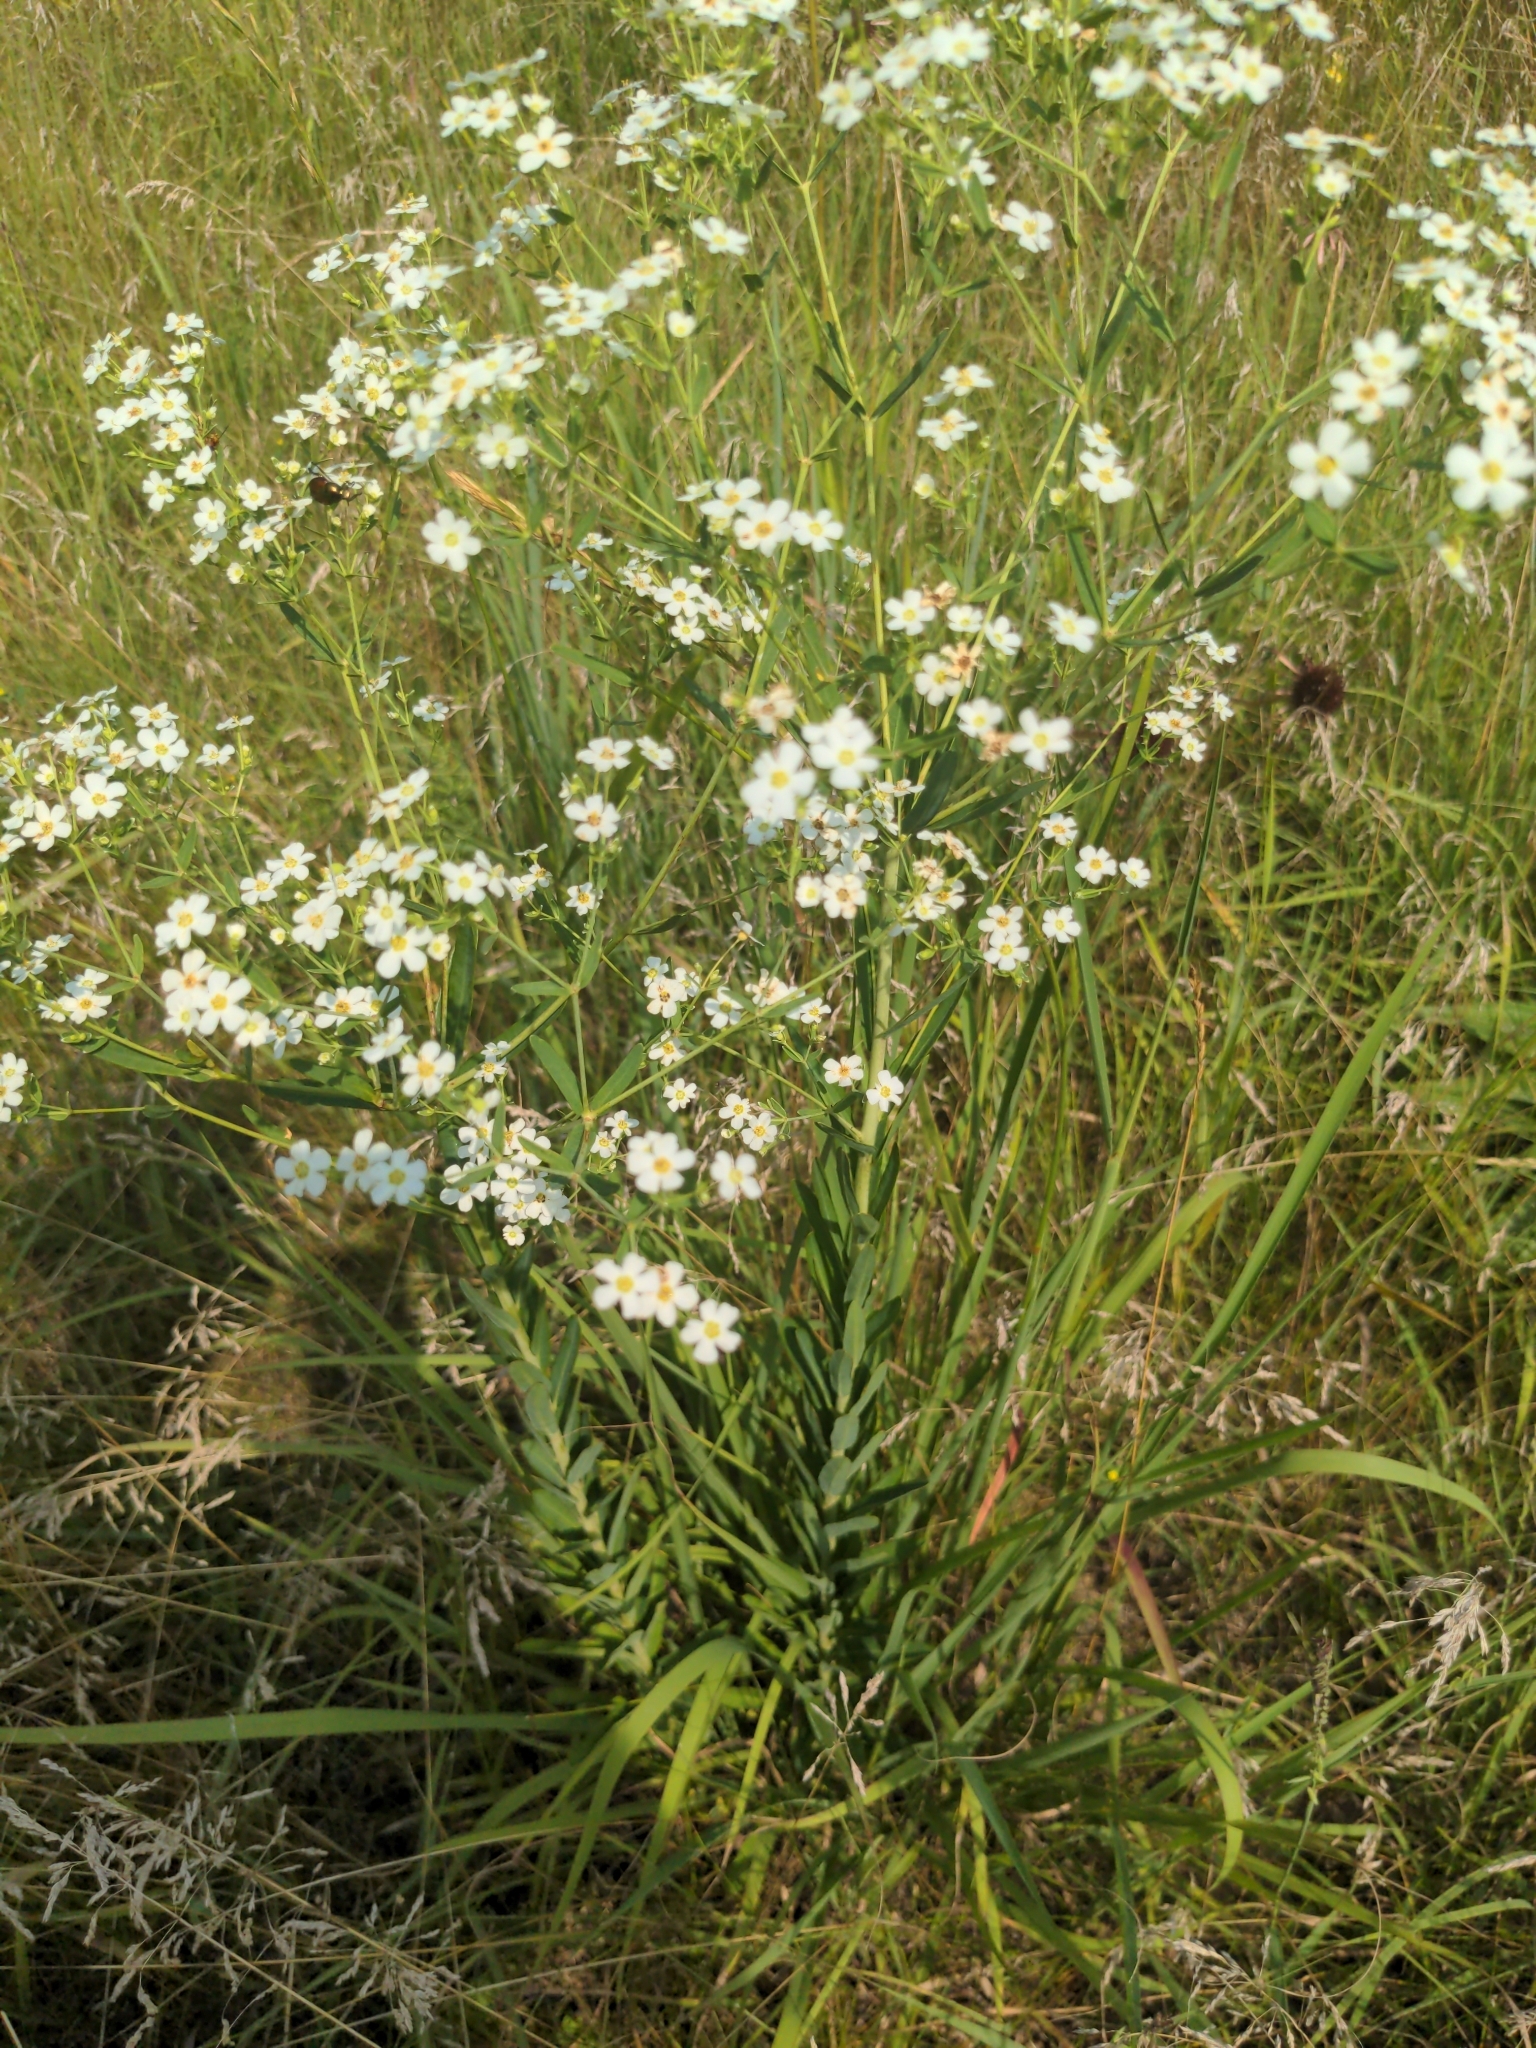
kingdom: Plantae
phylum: Tracheophyta
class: Magnoliopsida
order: Malpighiales
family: Euphorbiaceae
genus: Euphorbia
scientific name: Euphorbia corollata
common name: Flowering spurge
